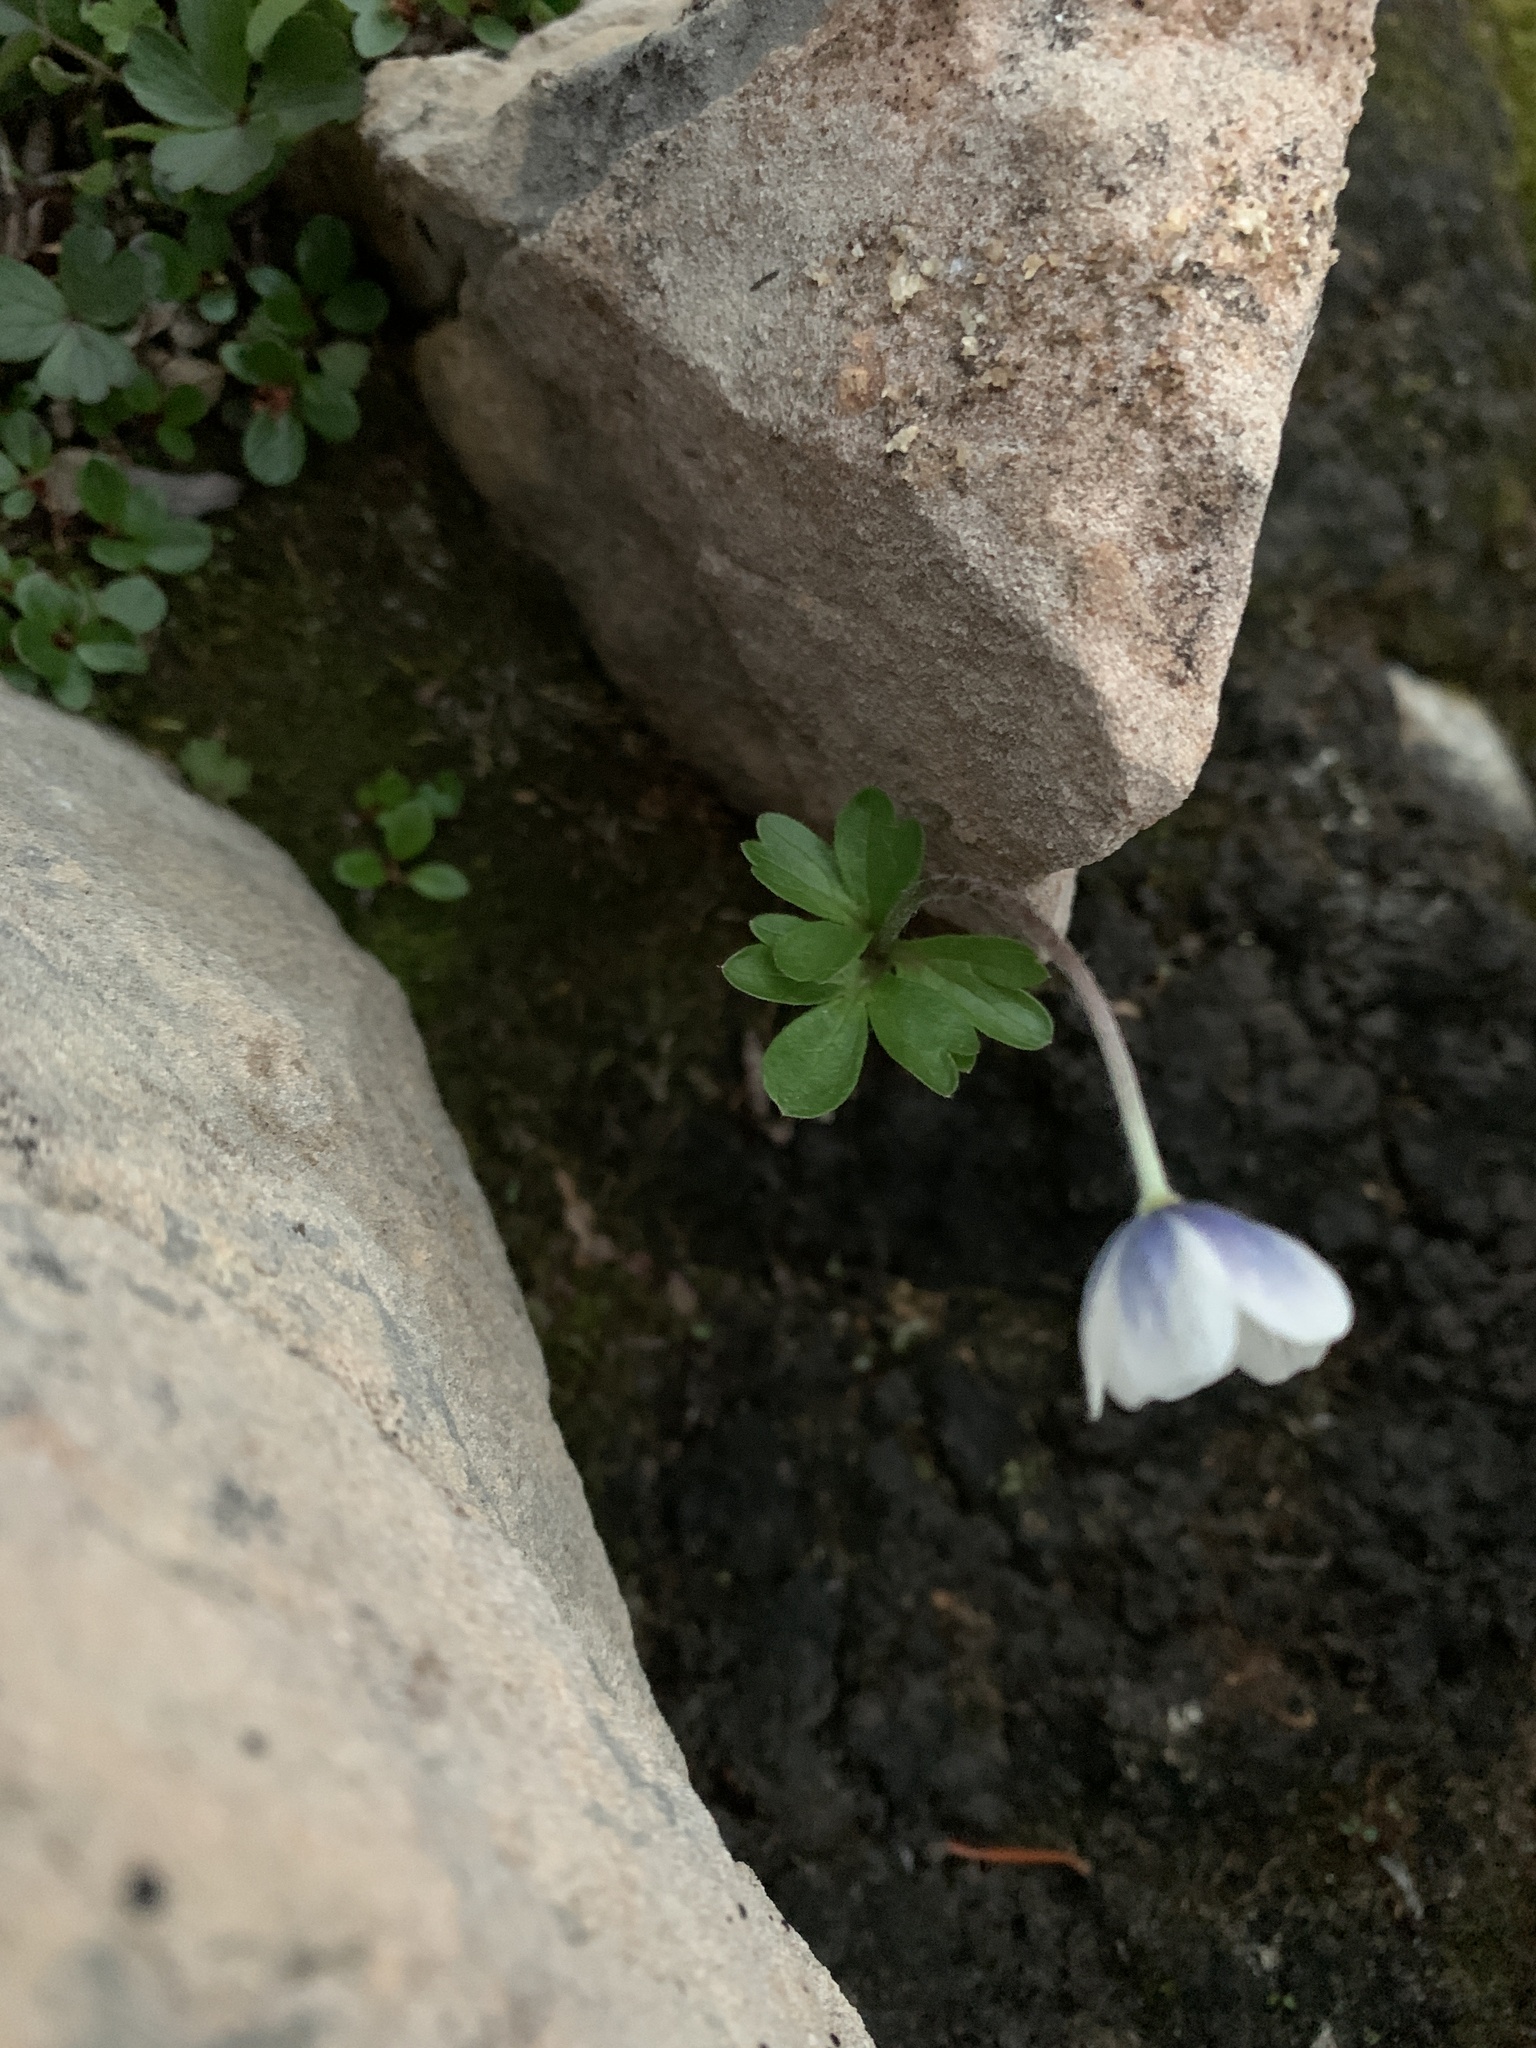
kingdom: Plantae
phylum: Tracheophyta
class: Magnoliopsida
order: Ranunculales
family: Ranunculaceae
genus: Anemone
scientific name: Anemone parviflora
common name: Northern anemone
